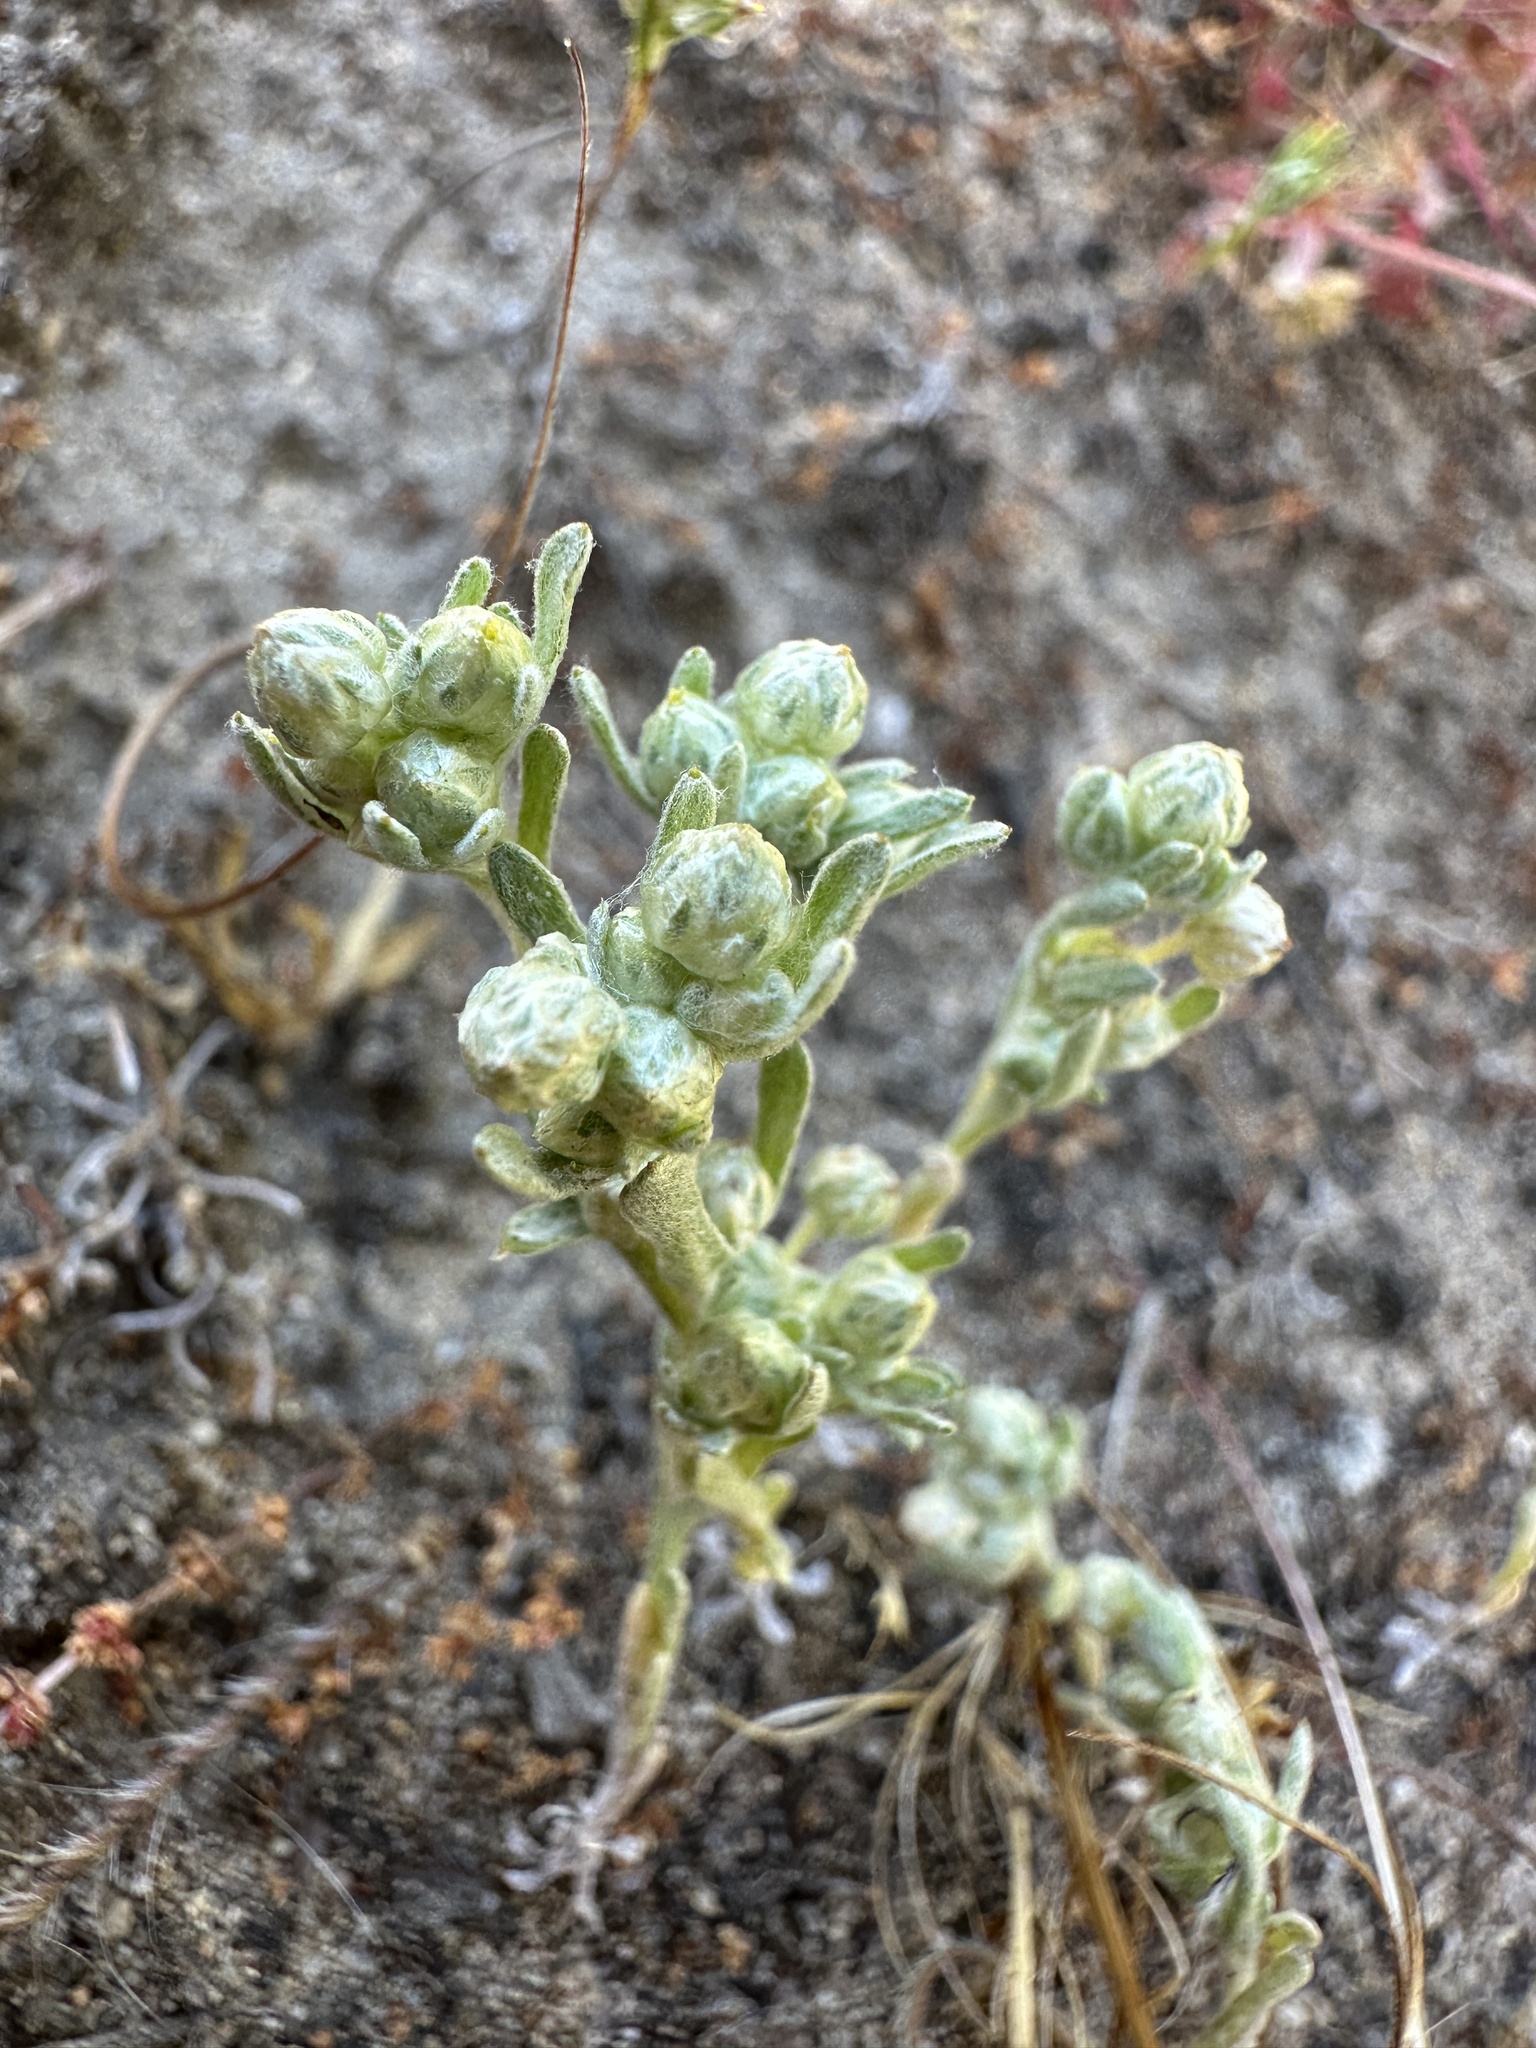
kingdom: Plantae
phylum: Tracheophyta
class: Magnoliopsida
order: Asterales
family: Asteraceae
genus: Stylocline
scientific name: Stylocline gnaphaloides
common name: Everlasting nest-straw
